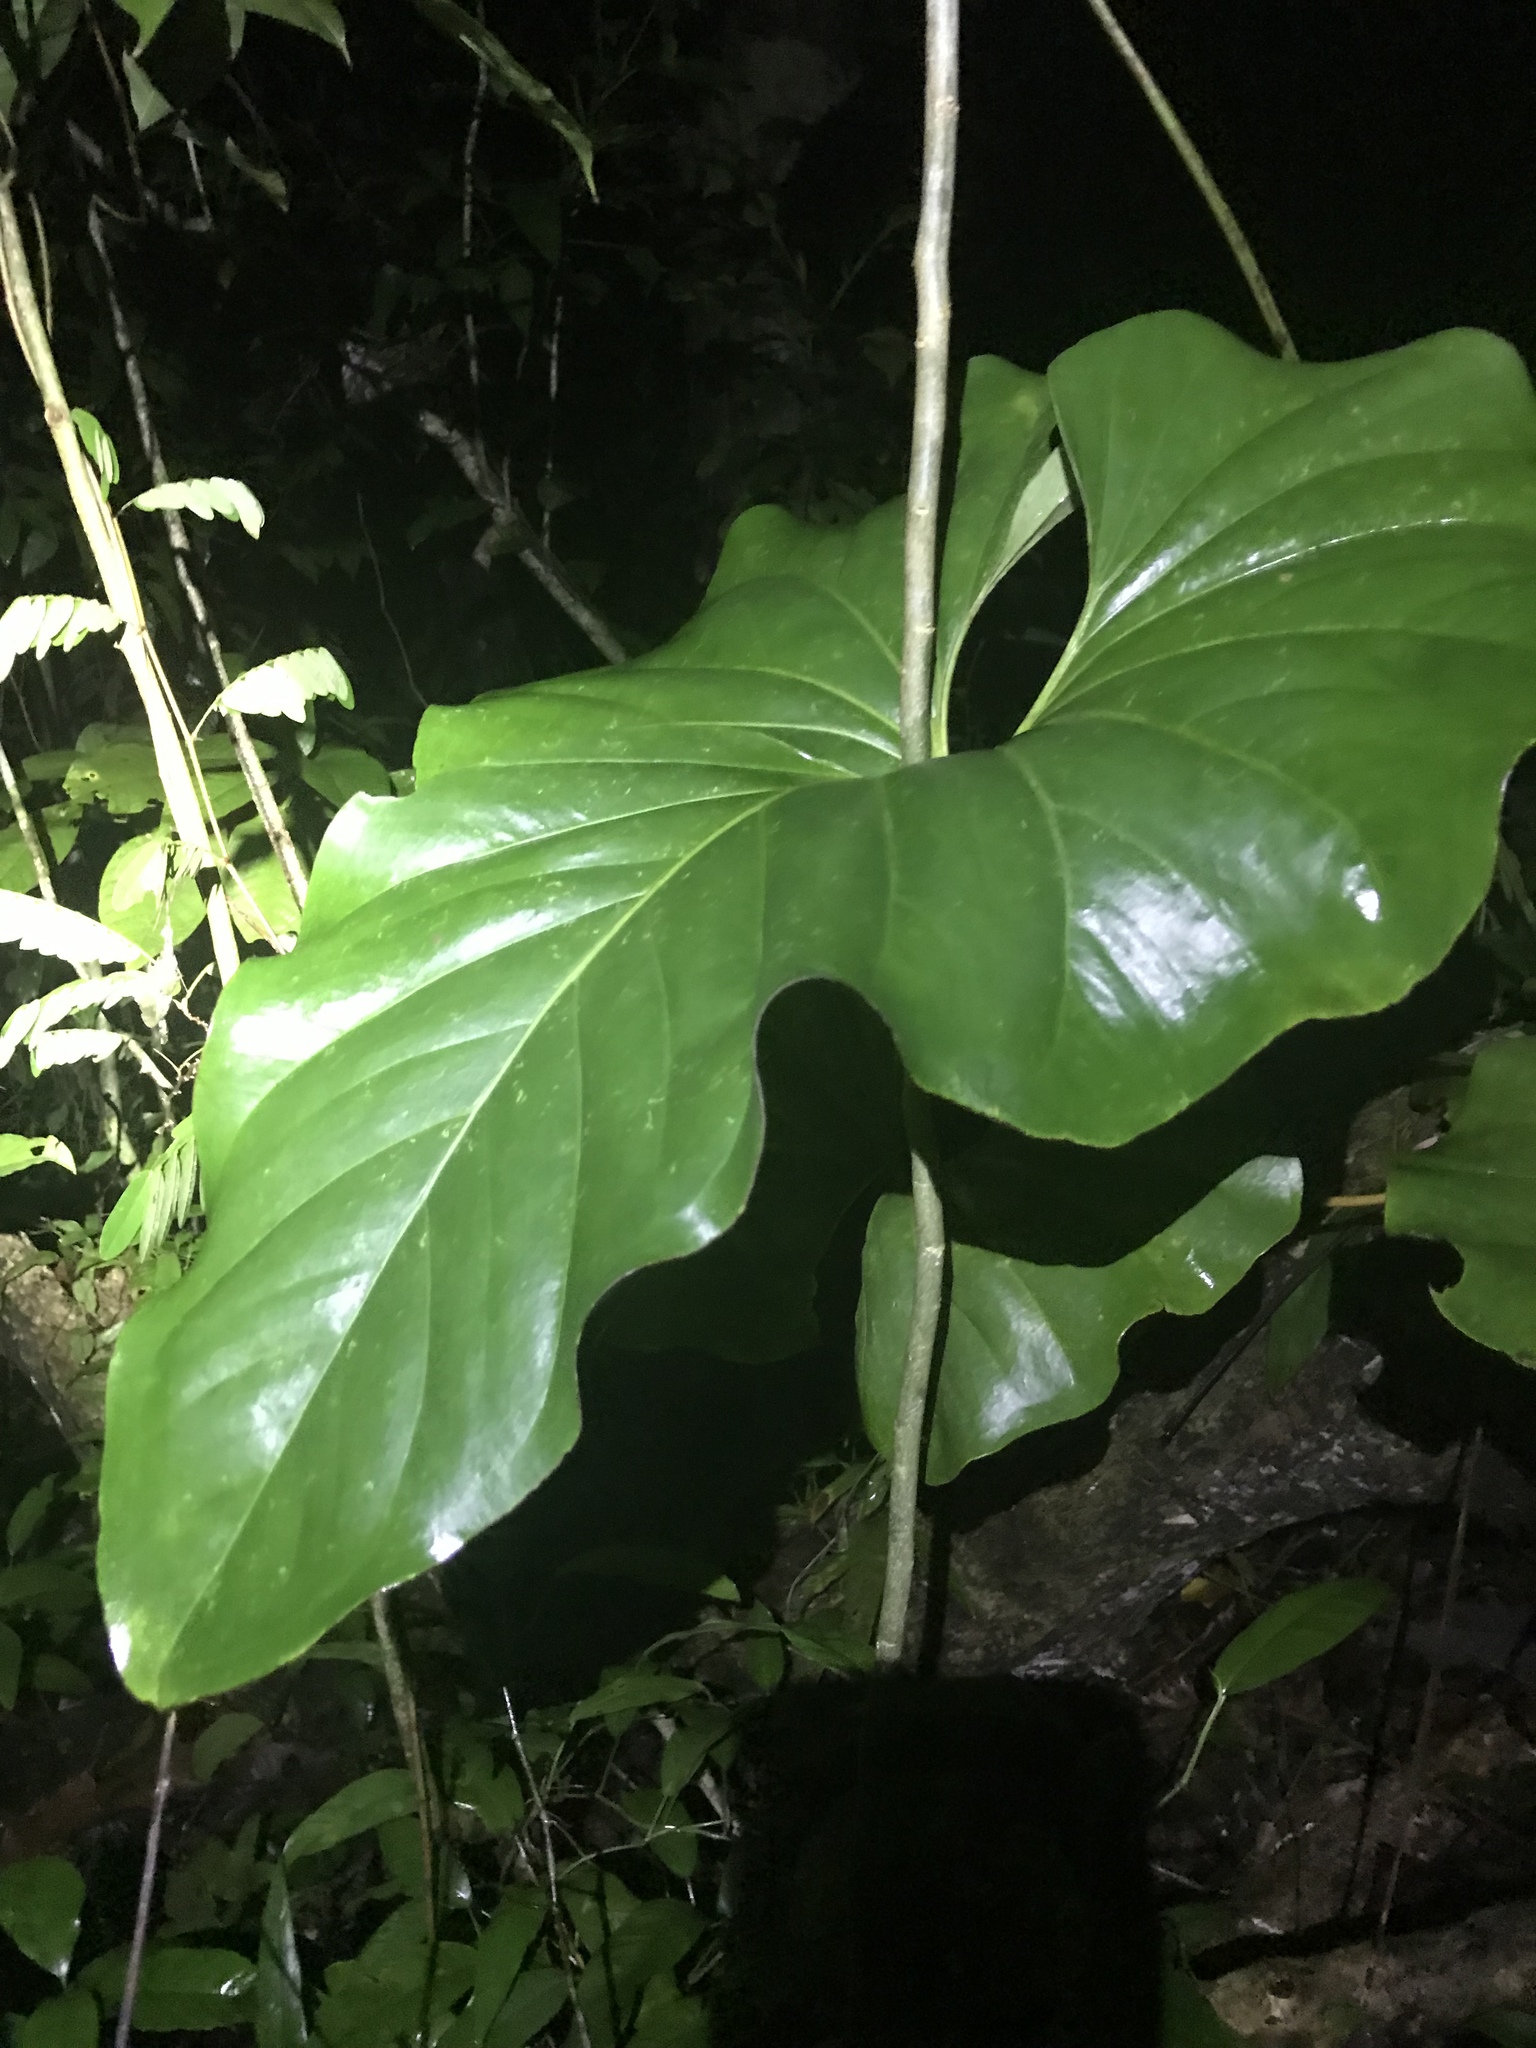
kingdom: Plantae
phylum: Tracheophyta
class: Liliopsida
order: Alismatales
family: Araceae
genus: Anthurium
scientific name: Anthurium brownii
